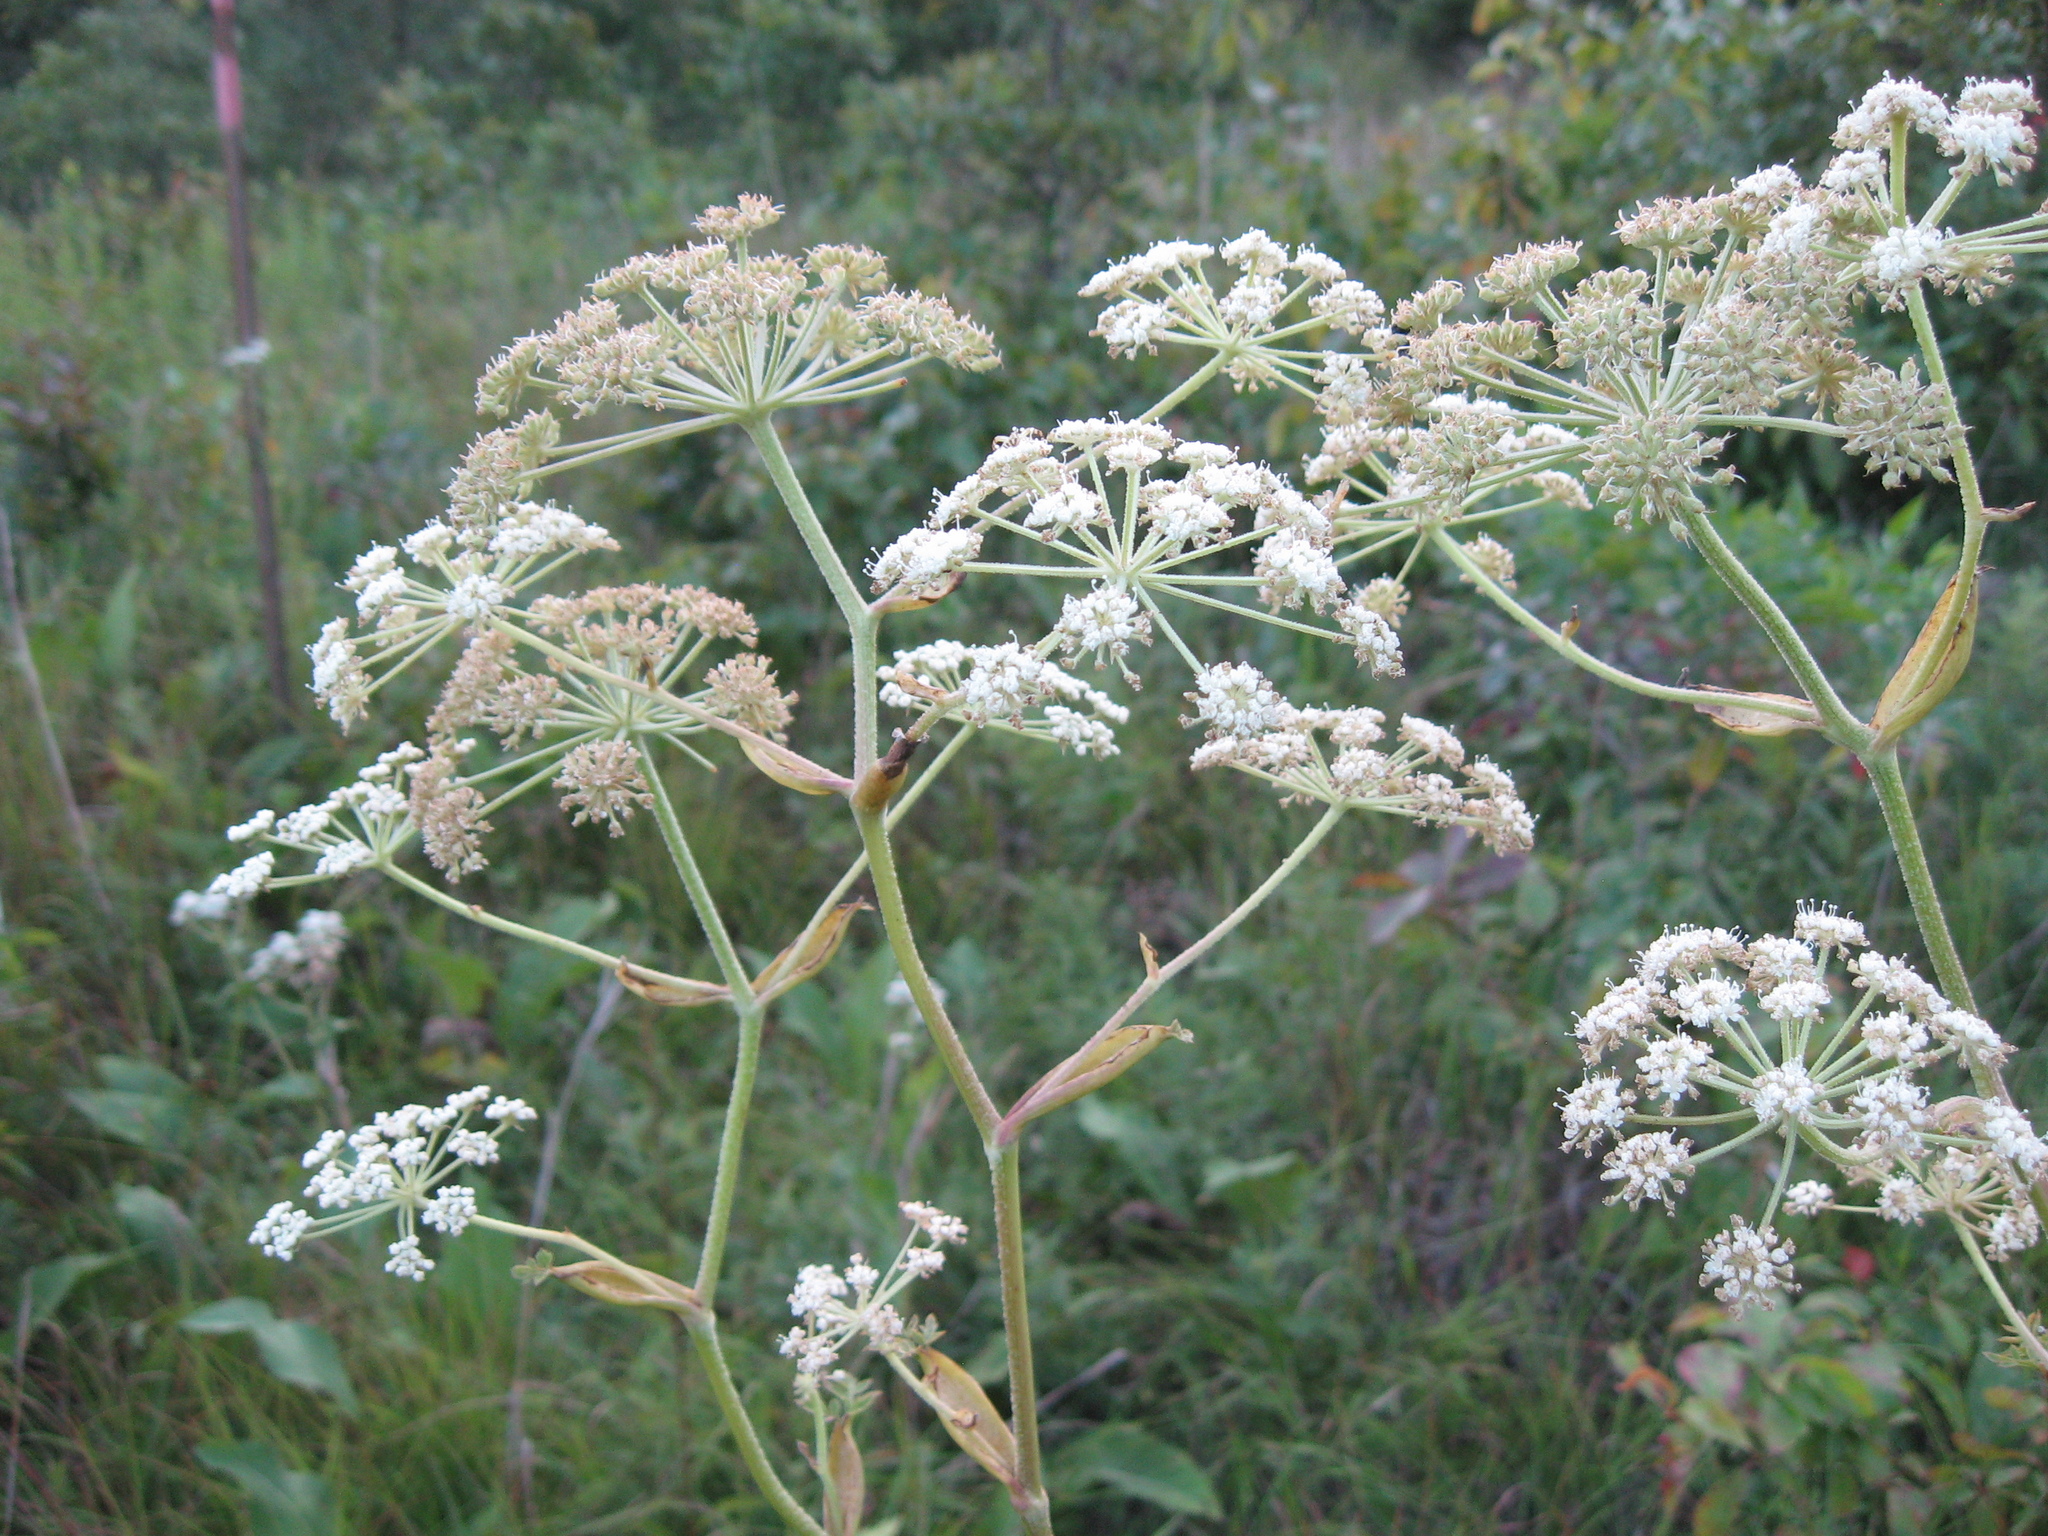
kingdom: Plantae
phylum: Tracheophyta
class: Magnoliopsida
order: Apiales
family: Apiaceae
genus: Angelica
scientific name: Angelica venenosa
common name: Hairy angelica
